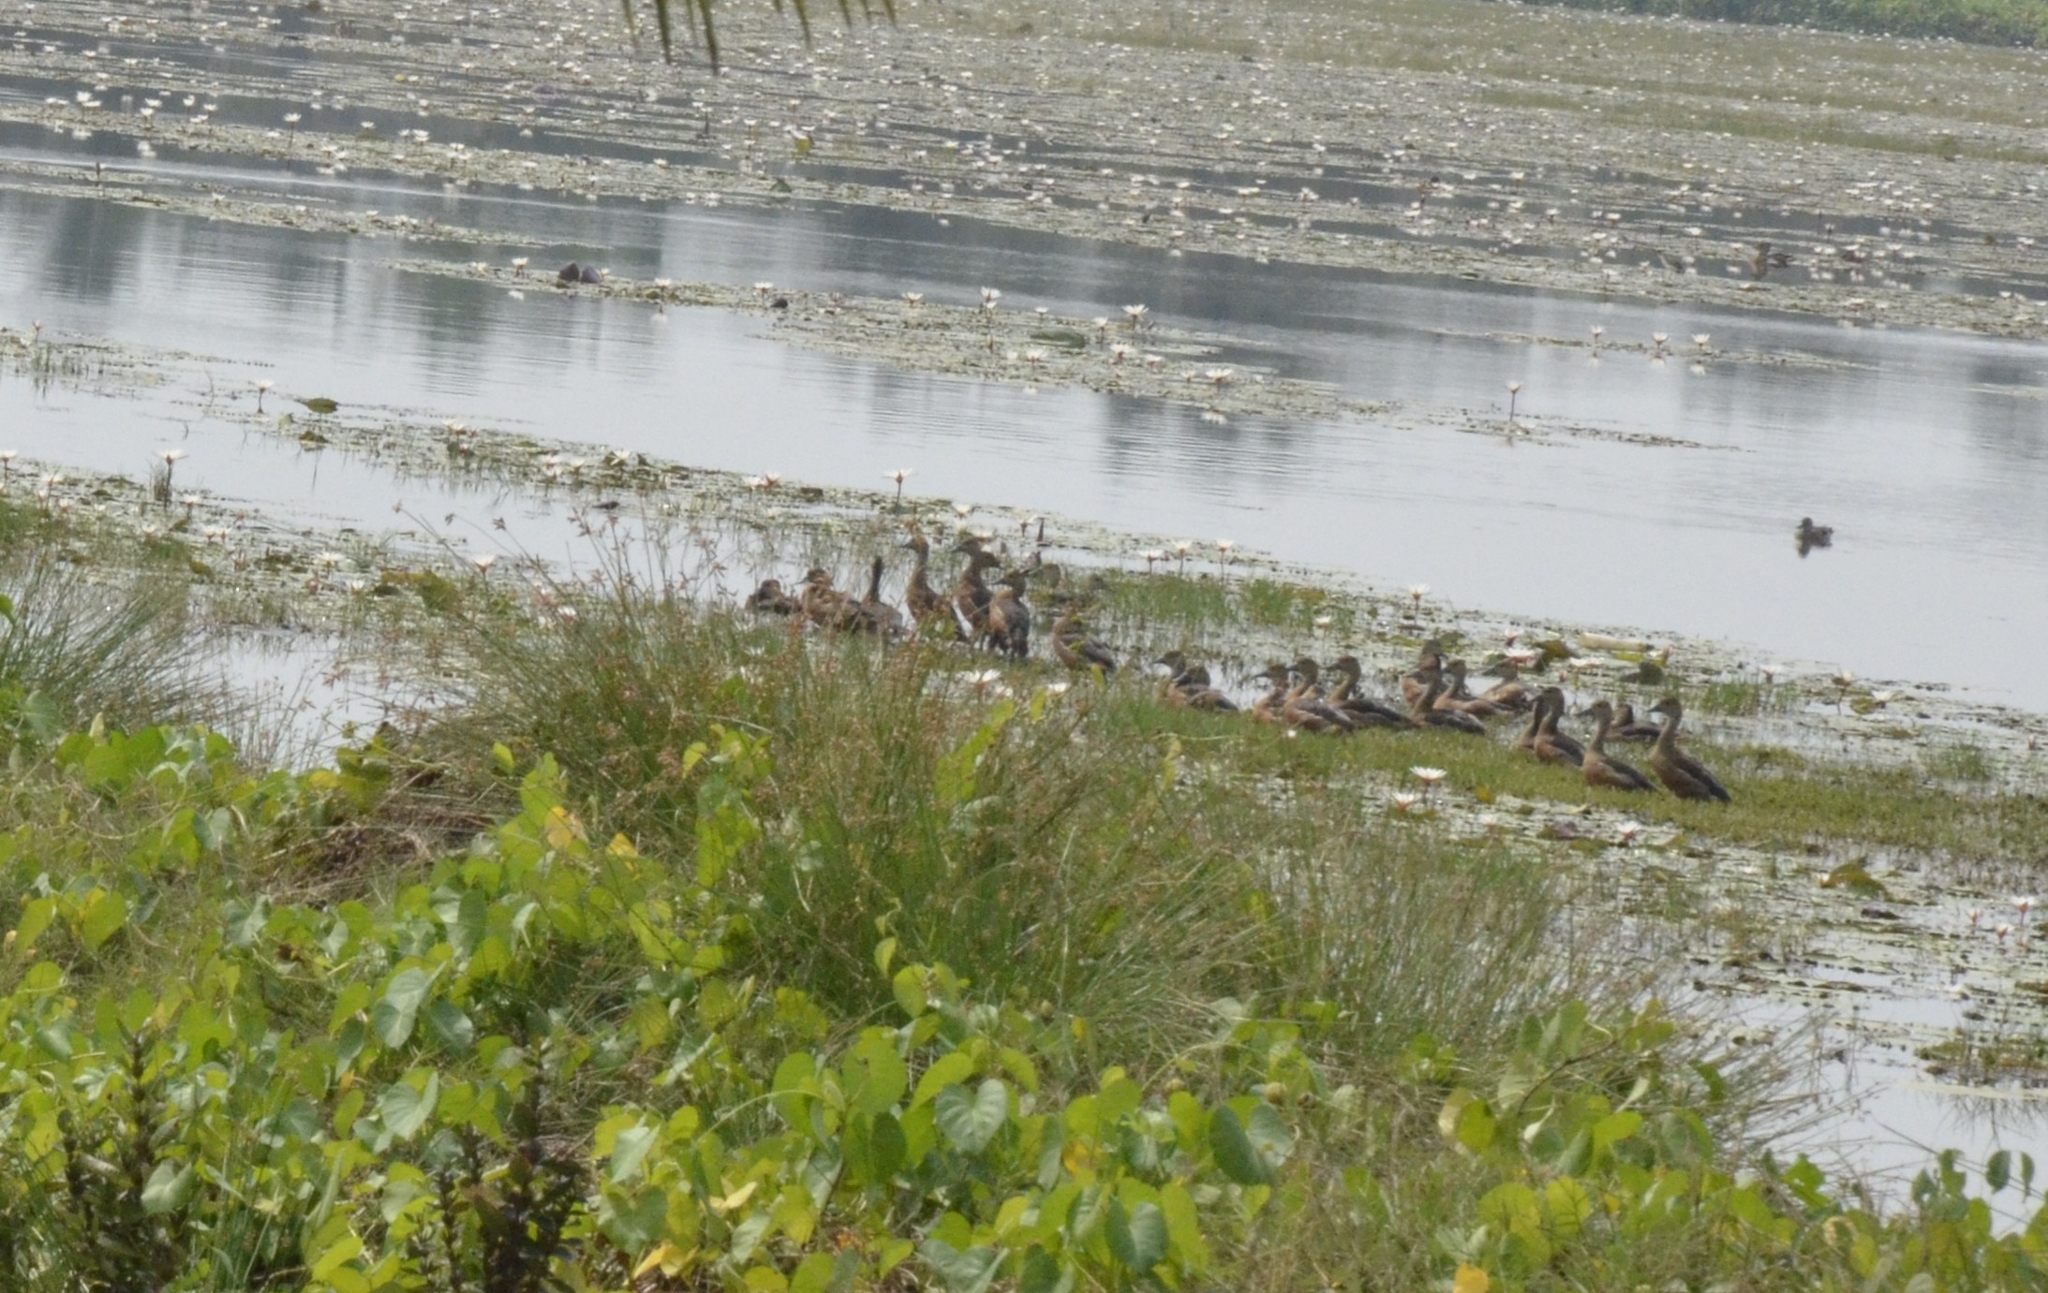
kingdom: Animalia
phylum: Chordata
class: Aves
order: Anseriformes
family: Anatidae
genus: Dendrocygna
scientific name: Dendrocygna javanica
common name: Lesser whistling-duck
